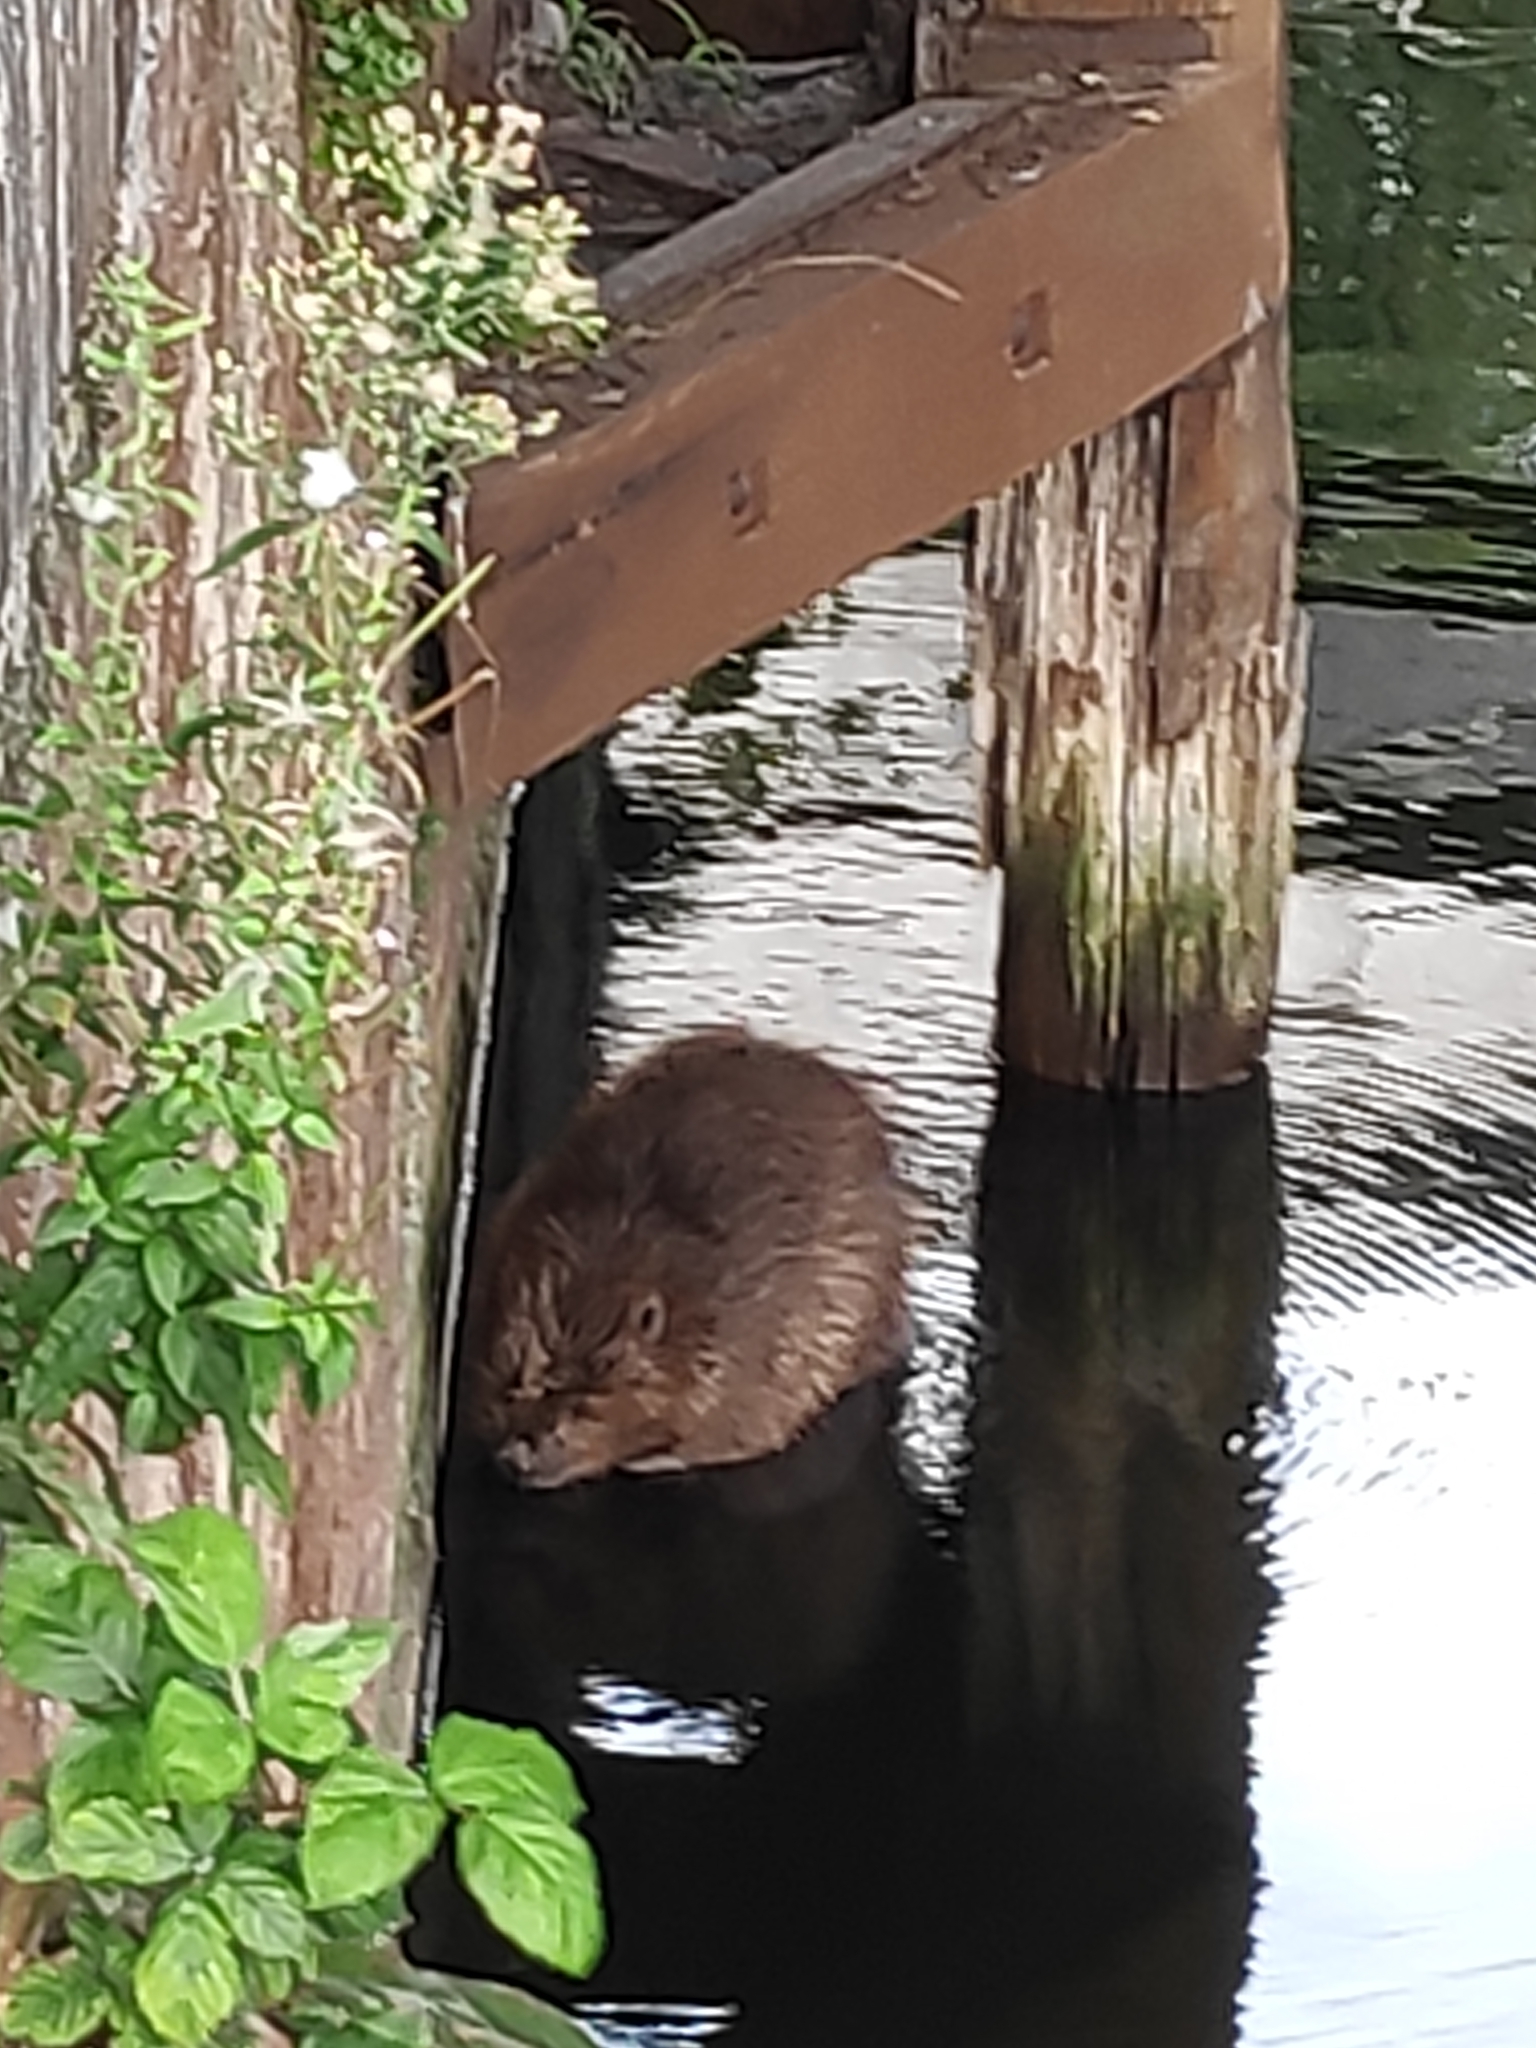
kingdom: Animalia
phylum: Chordata
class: Mammalia
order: Rodentia
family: Castoridae
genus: Castor
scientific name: Castor fiber
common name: Eurasian beaver
